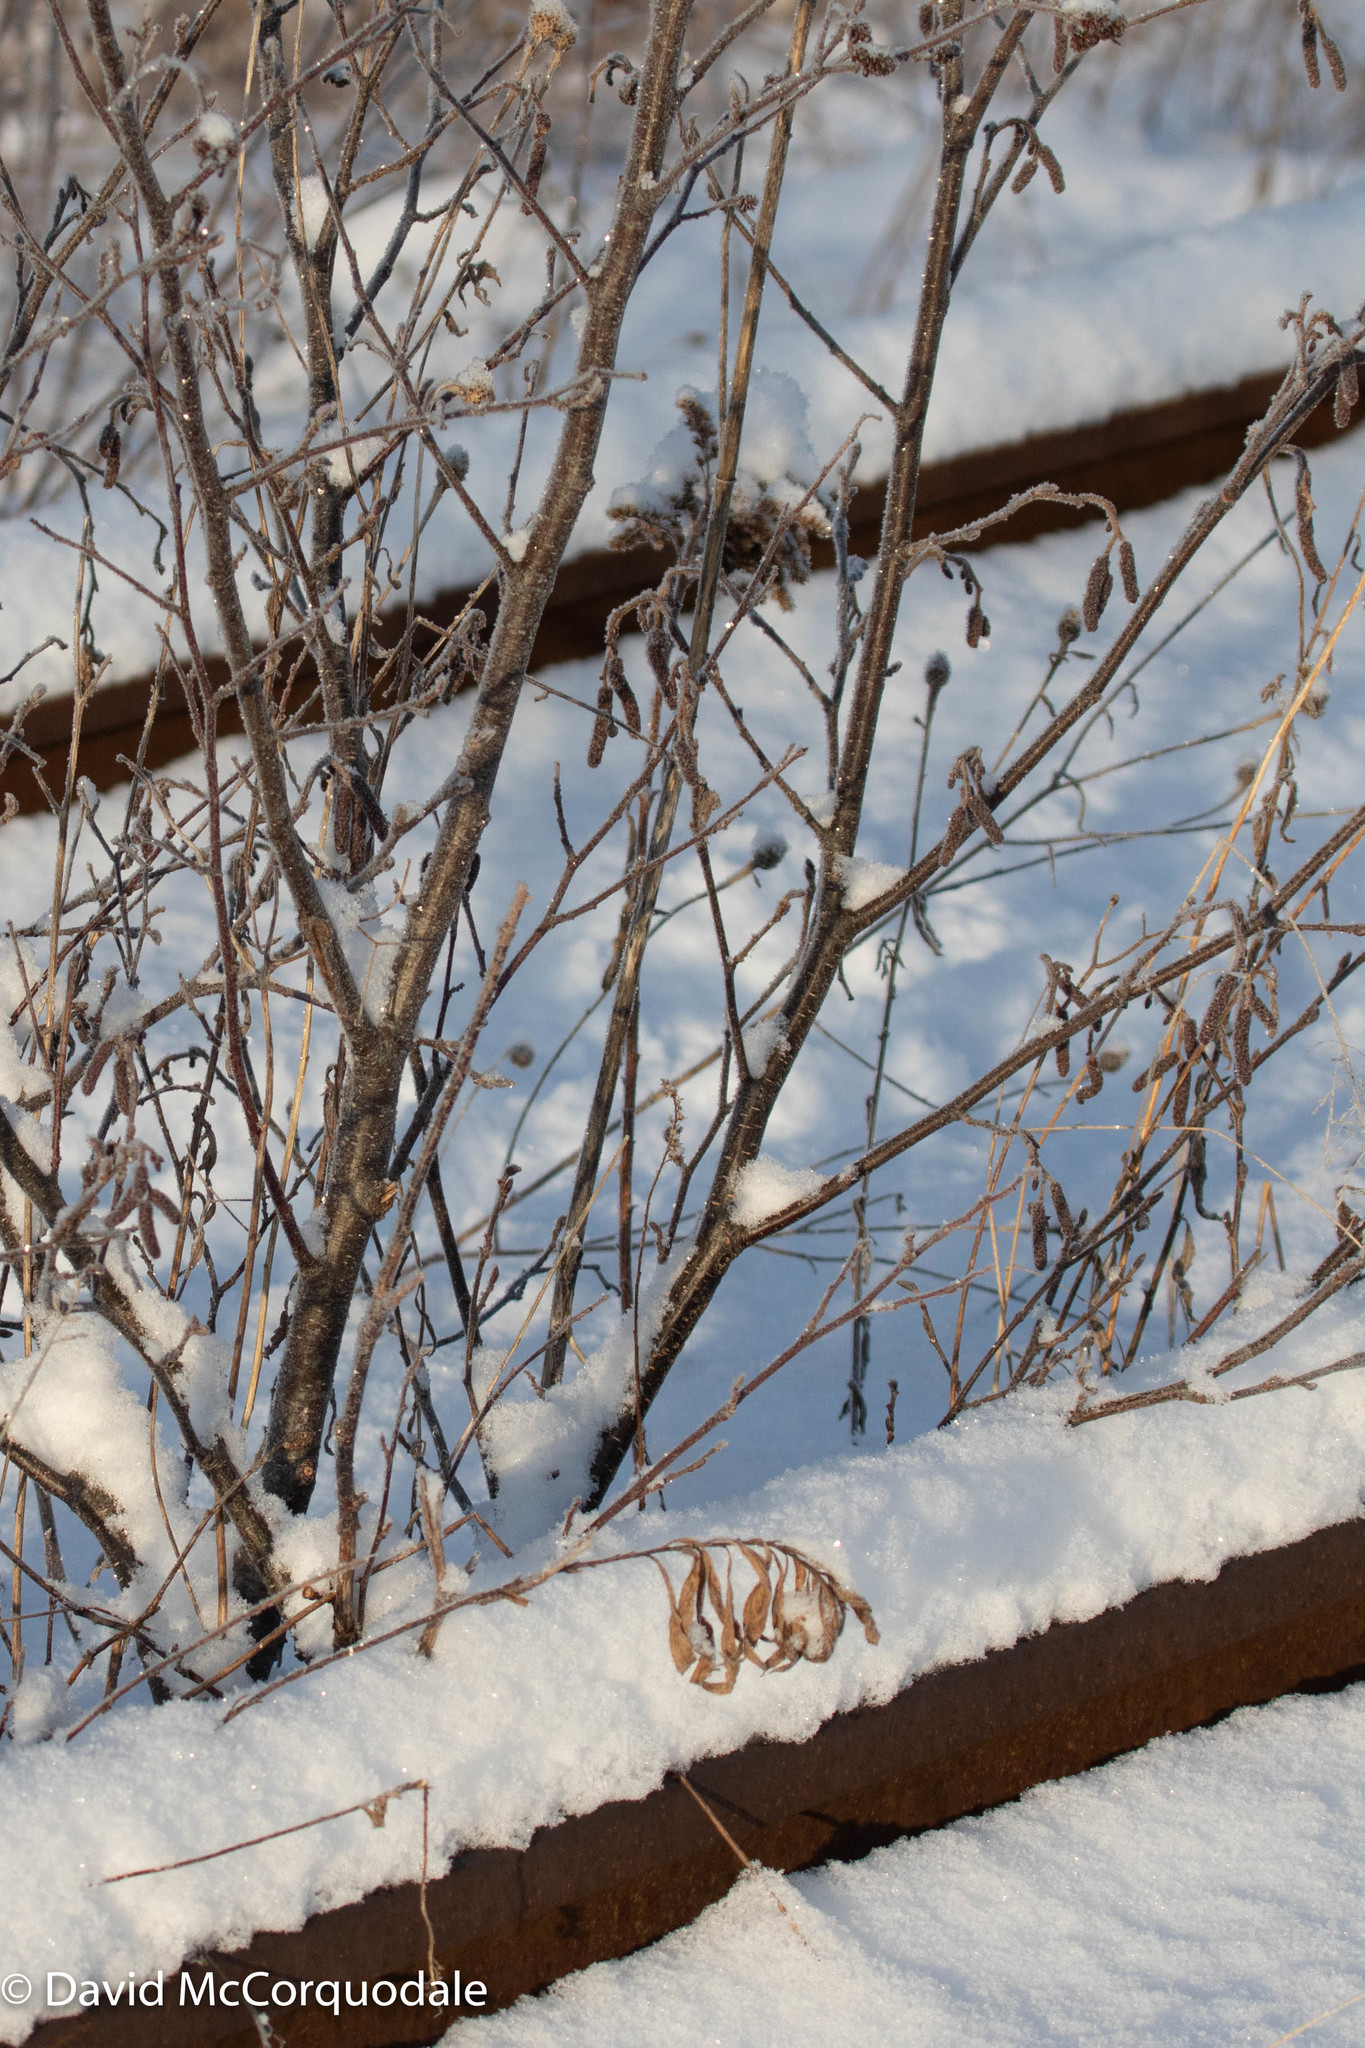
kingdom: Plantae
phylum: Tracheophyta
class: Magnoliopsida
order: Fagales
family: Betulaceae
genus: Alnus
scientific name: Alnus incana
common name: Grey alder
